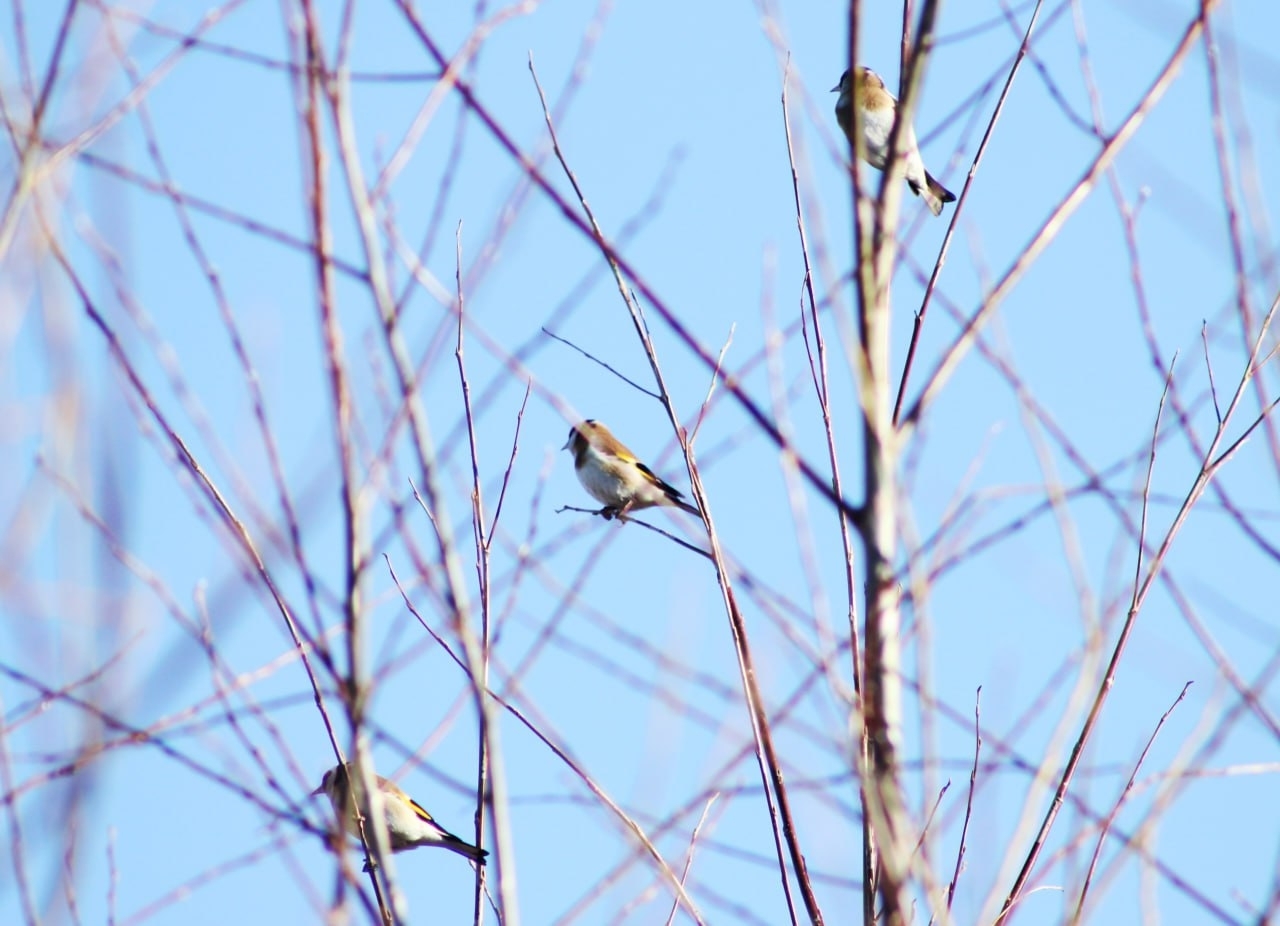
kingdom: Animalia
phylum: Chordata
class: Aves
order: Passeriformes
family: Fringillidae
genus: Carduelis
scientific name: Carduelis carduelis
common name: European goldfinch
